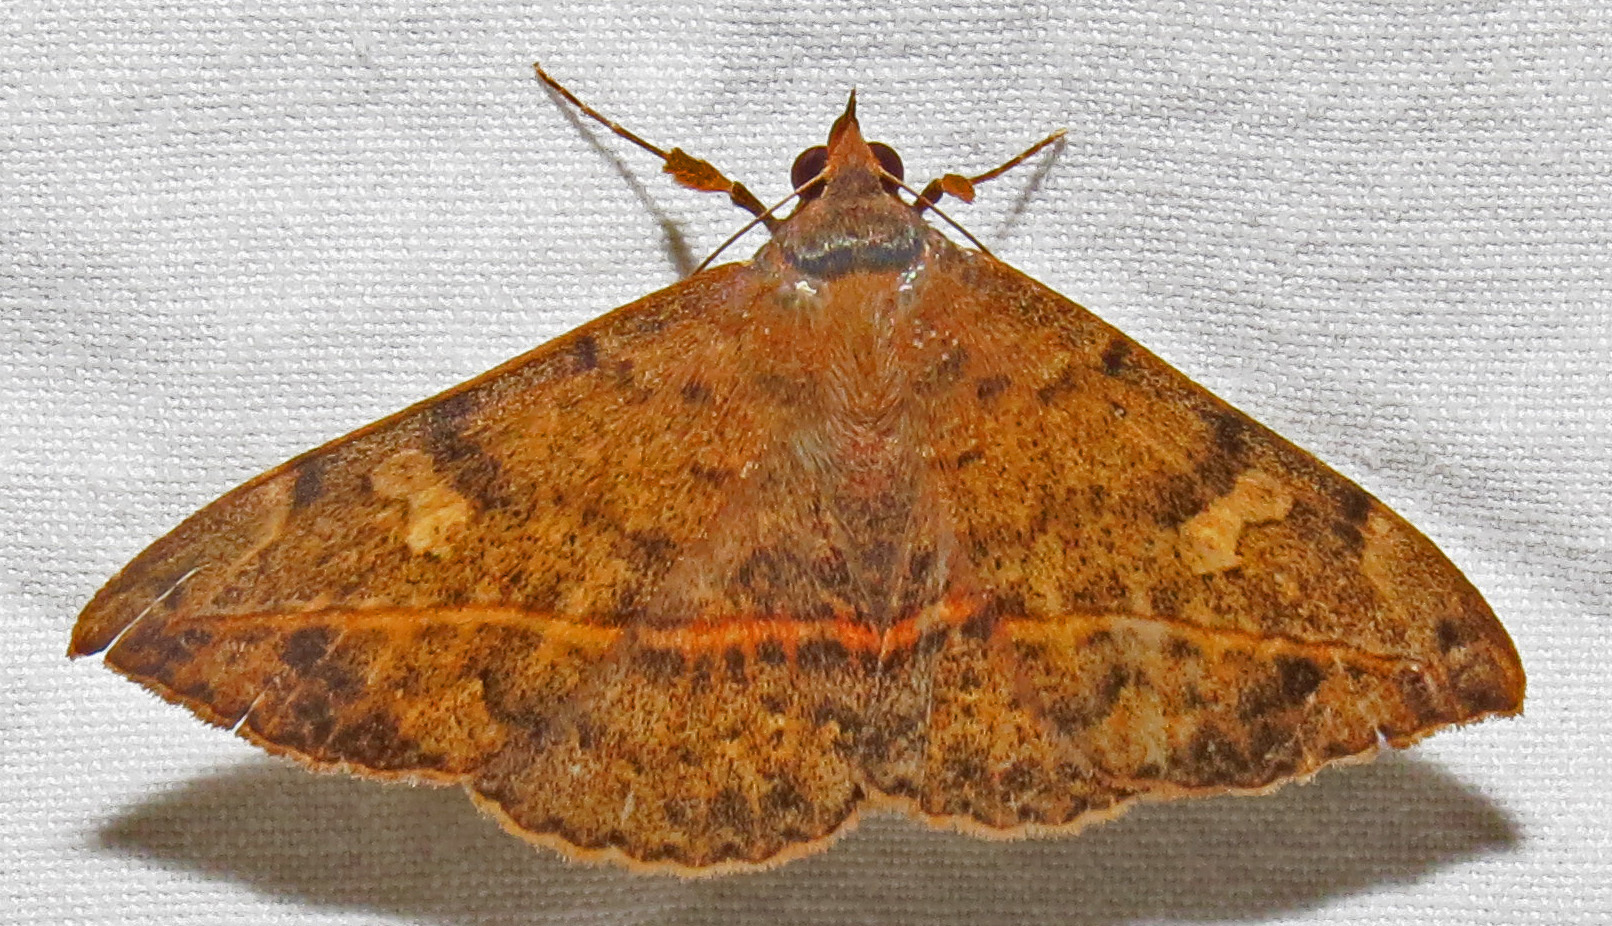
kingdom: Animalia
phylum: Arthropoda
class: Insecta
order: Lepidoptera
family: Erebidae
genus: Anticarsia
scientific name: Anticarsia gemmatalis
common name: Cutworm moth
